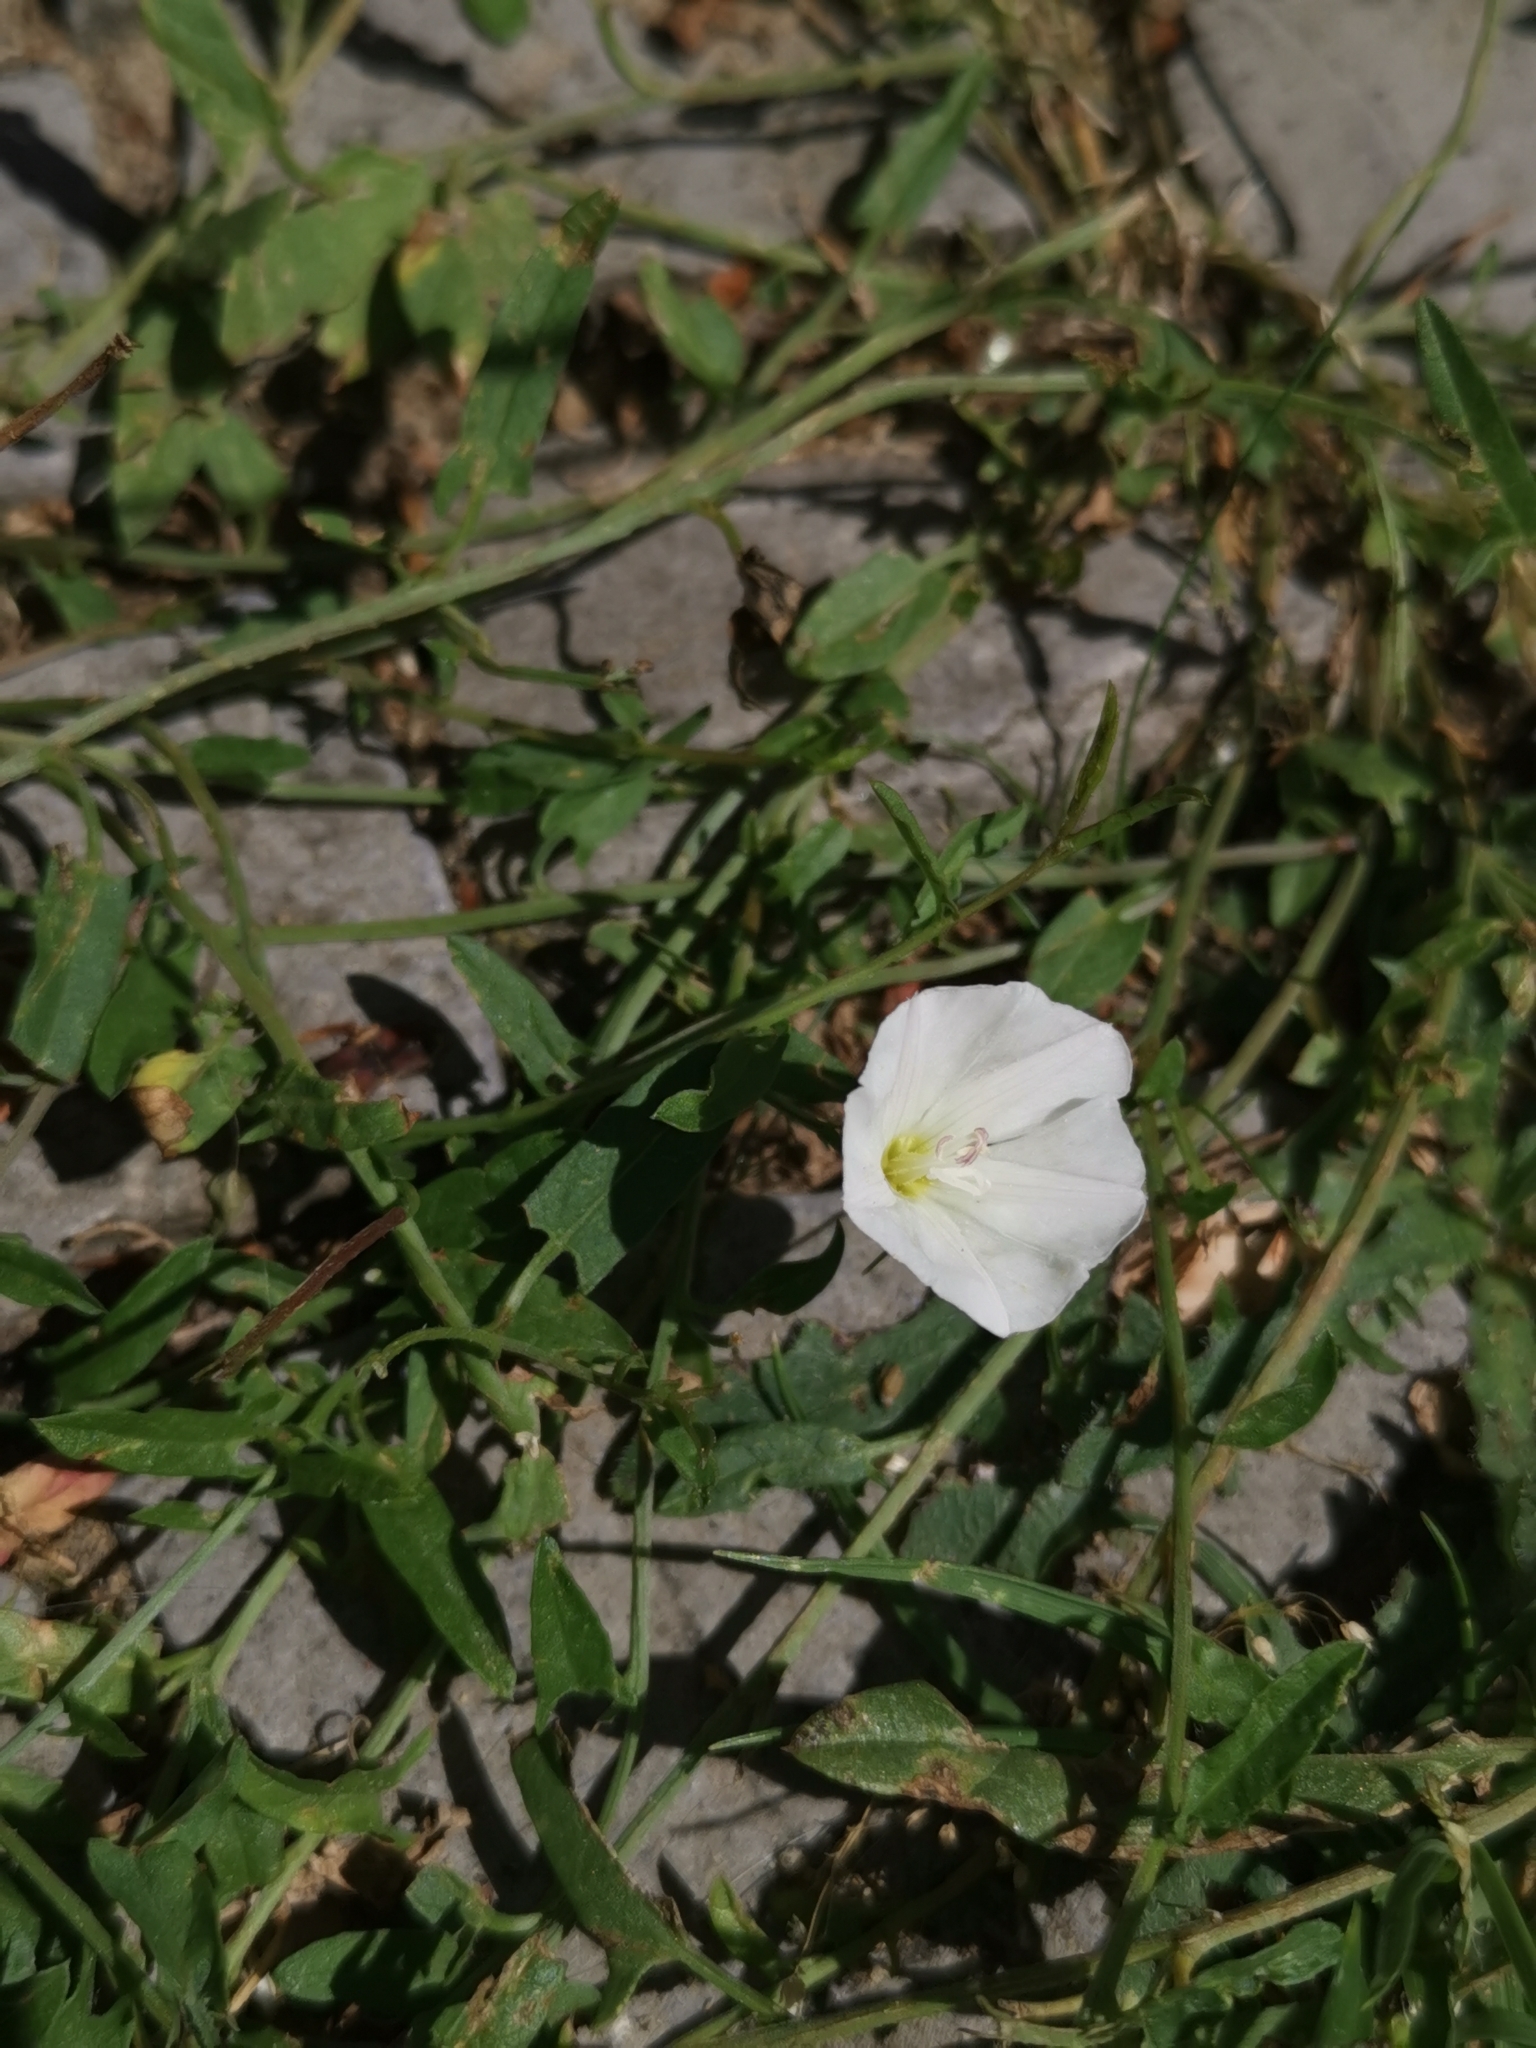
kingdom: Plantae
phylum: Tracheophyta
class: Magnoliopsida
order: Solanales
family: Convolvulaceae
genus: Convolvulus
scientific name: Convolvulus arvensis
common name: Field bindweed
